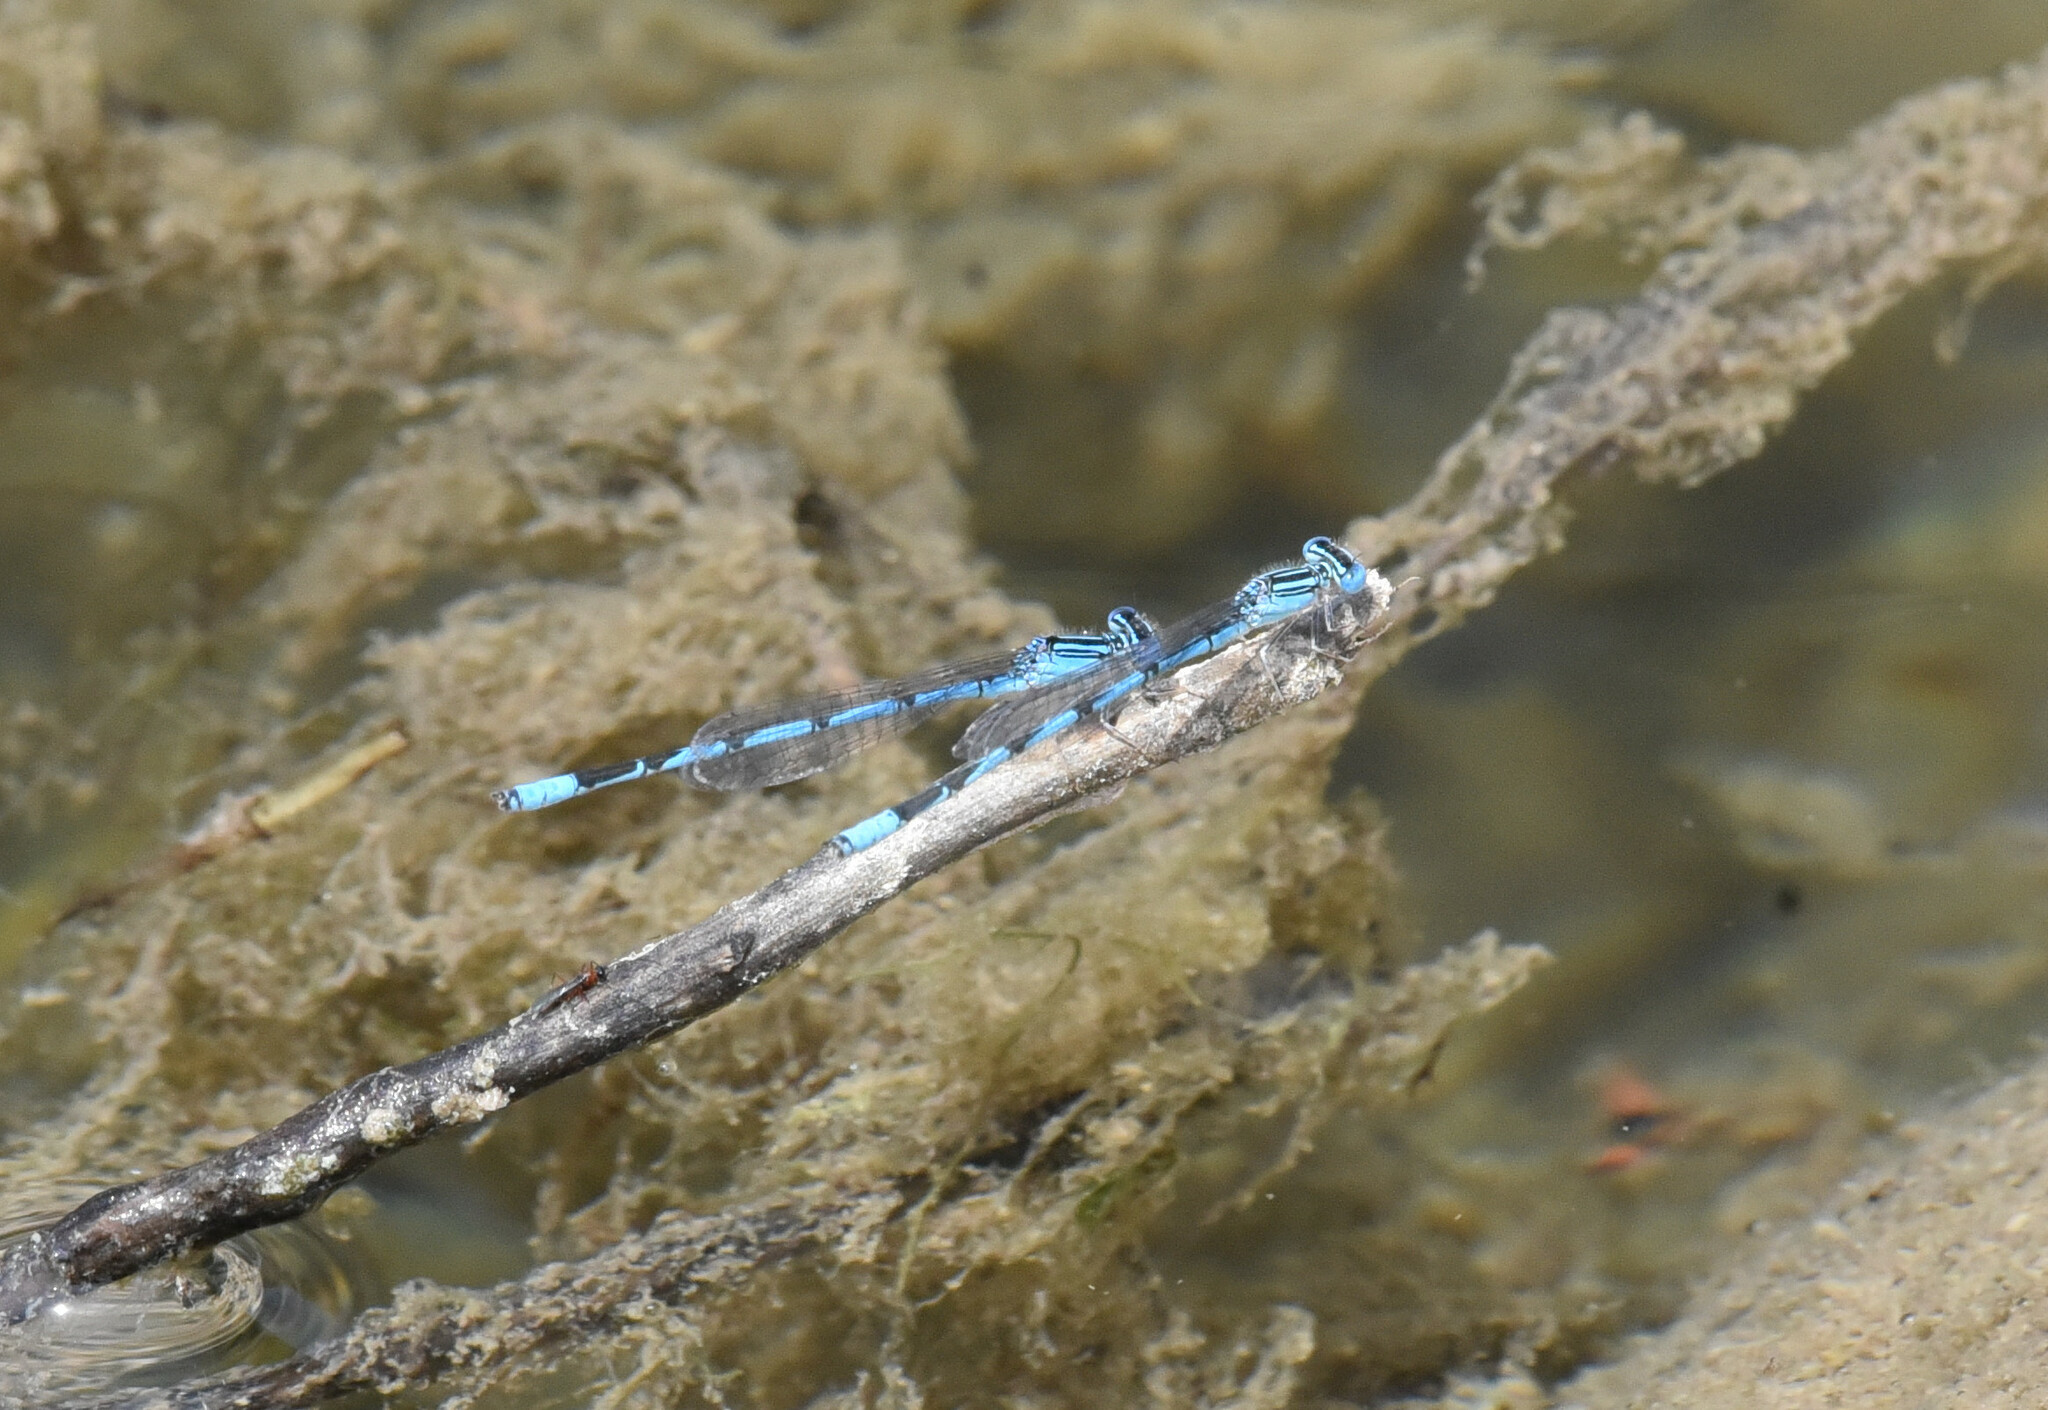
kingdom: Animalia
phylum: Arthropoda
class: Insecta
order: Odonata
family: Coenagrionidae
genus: Enallagma
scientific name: Enallagma basidens
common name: Double-striped bluet
